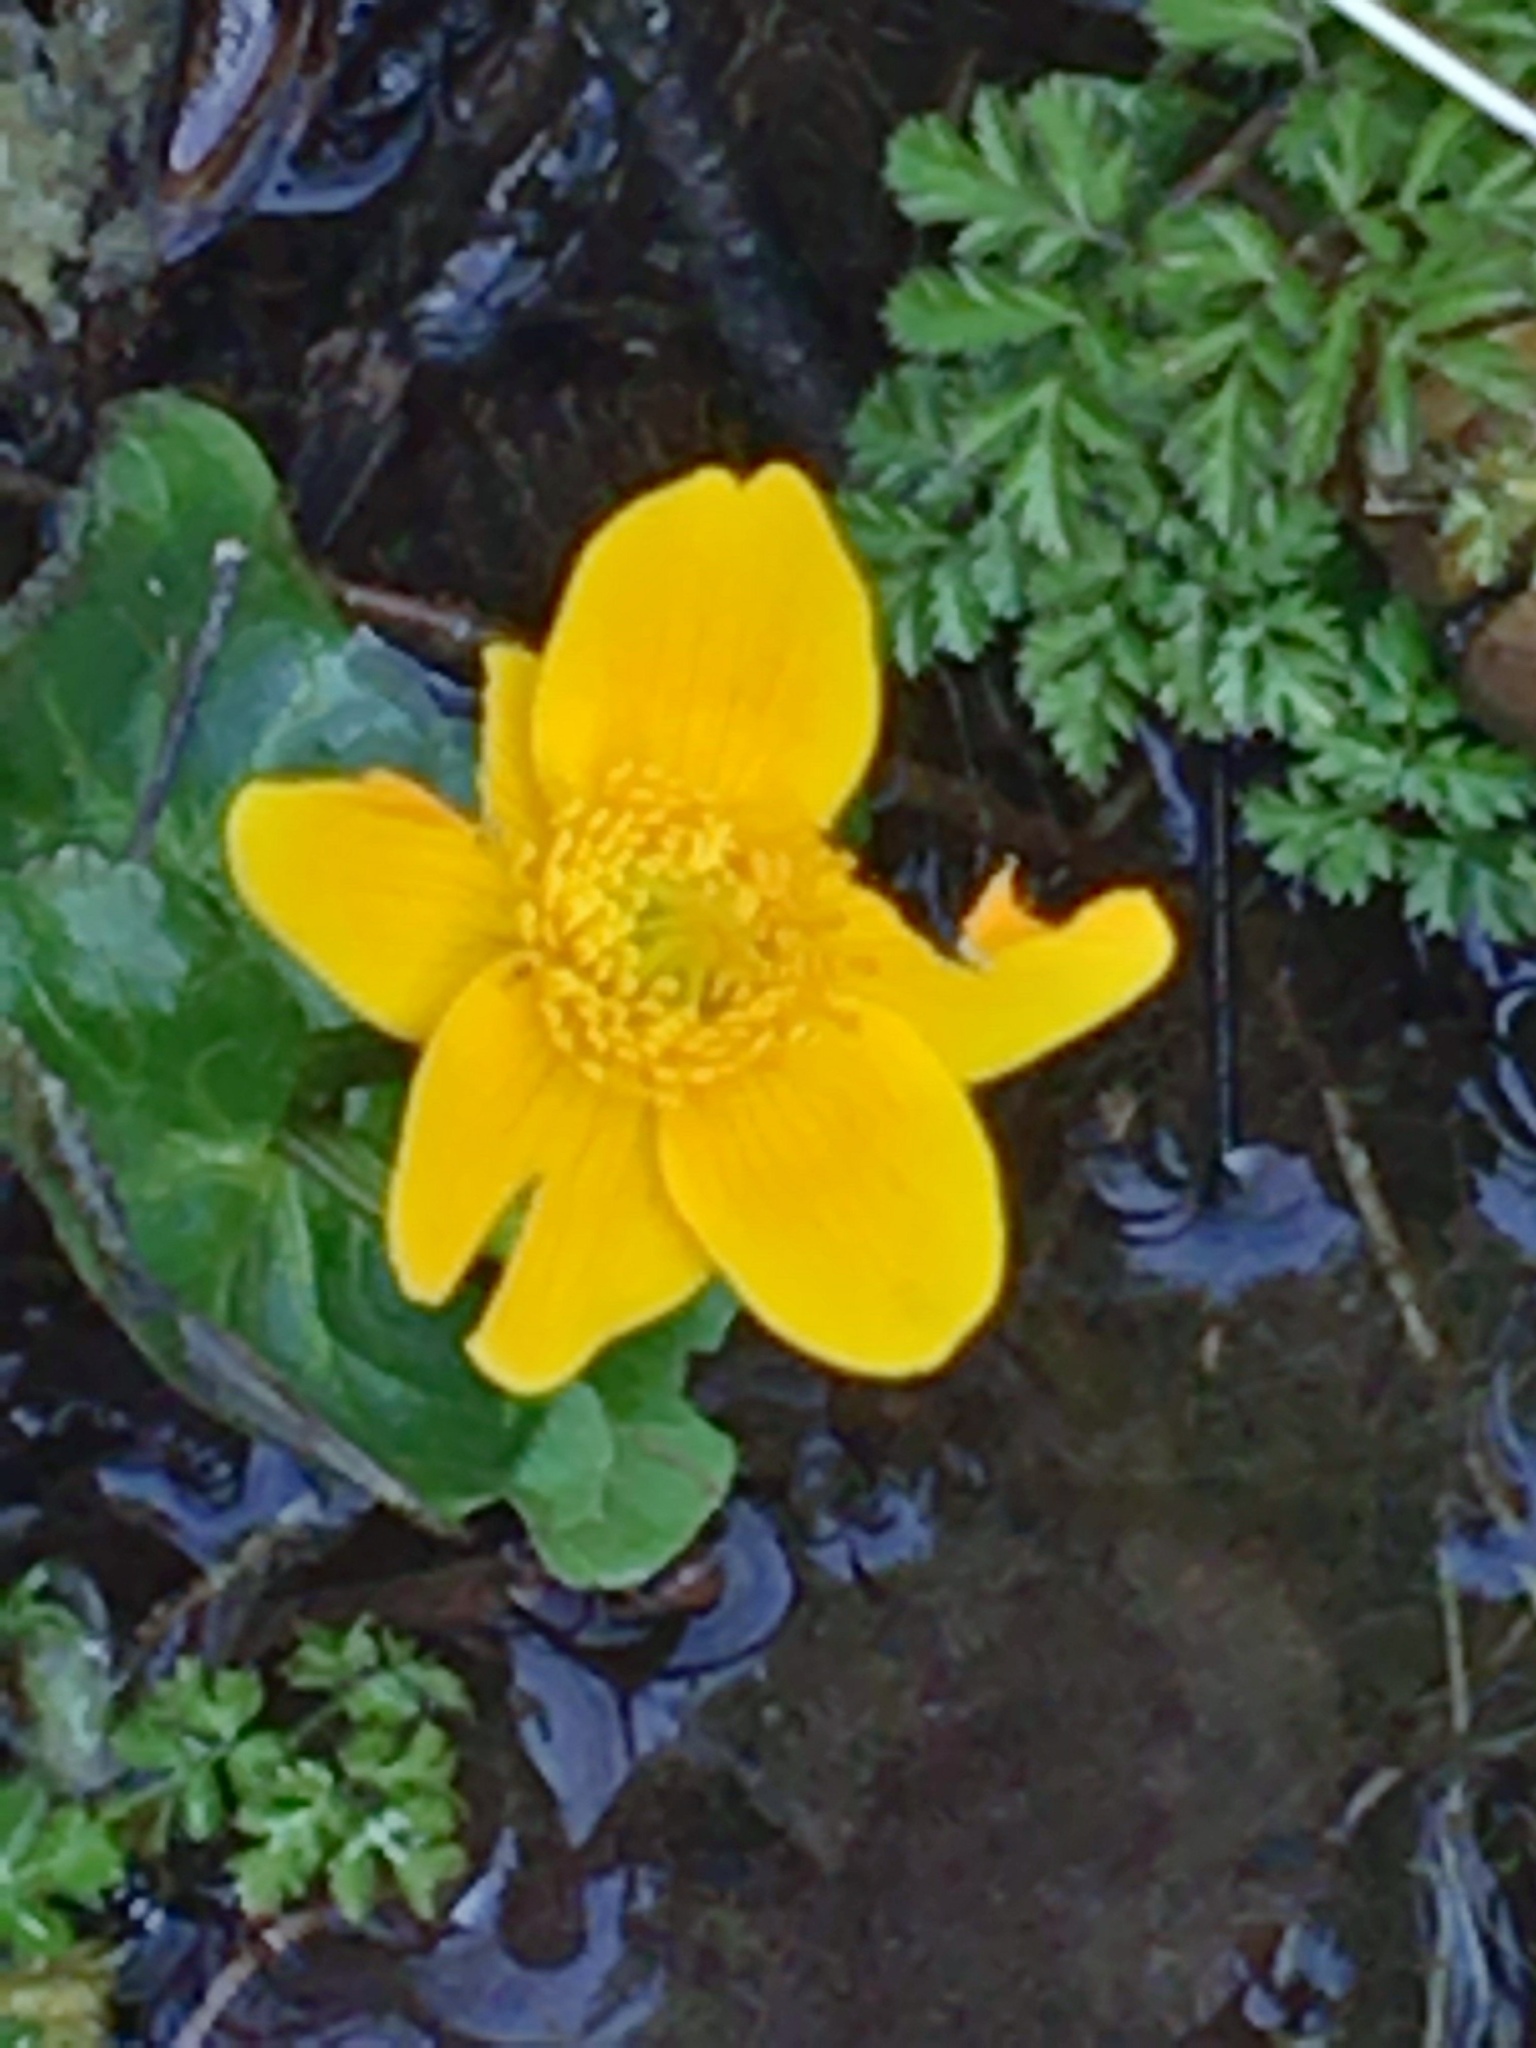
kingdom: Plantae
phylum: Tracheophyta
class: Magnoliopsida
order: Ranunculales
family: Ranunculaceae
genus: Caltha
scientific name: Caltha palustris
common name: Marsh marigold
